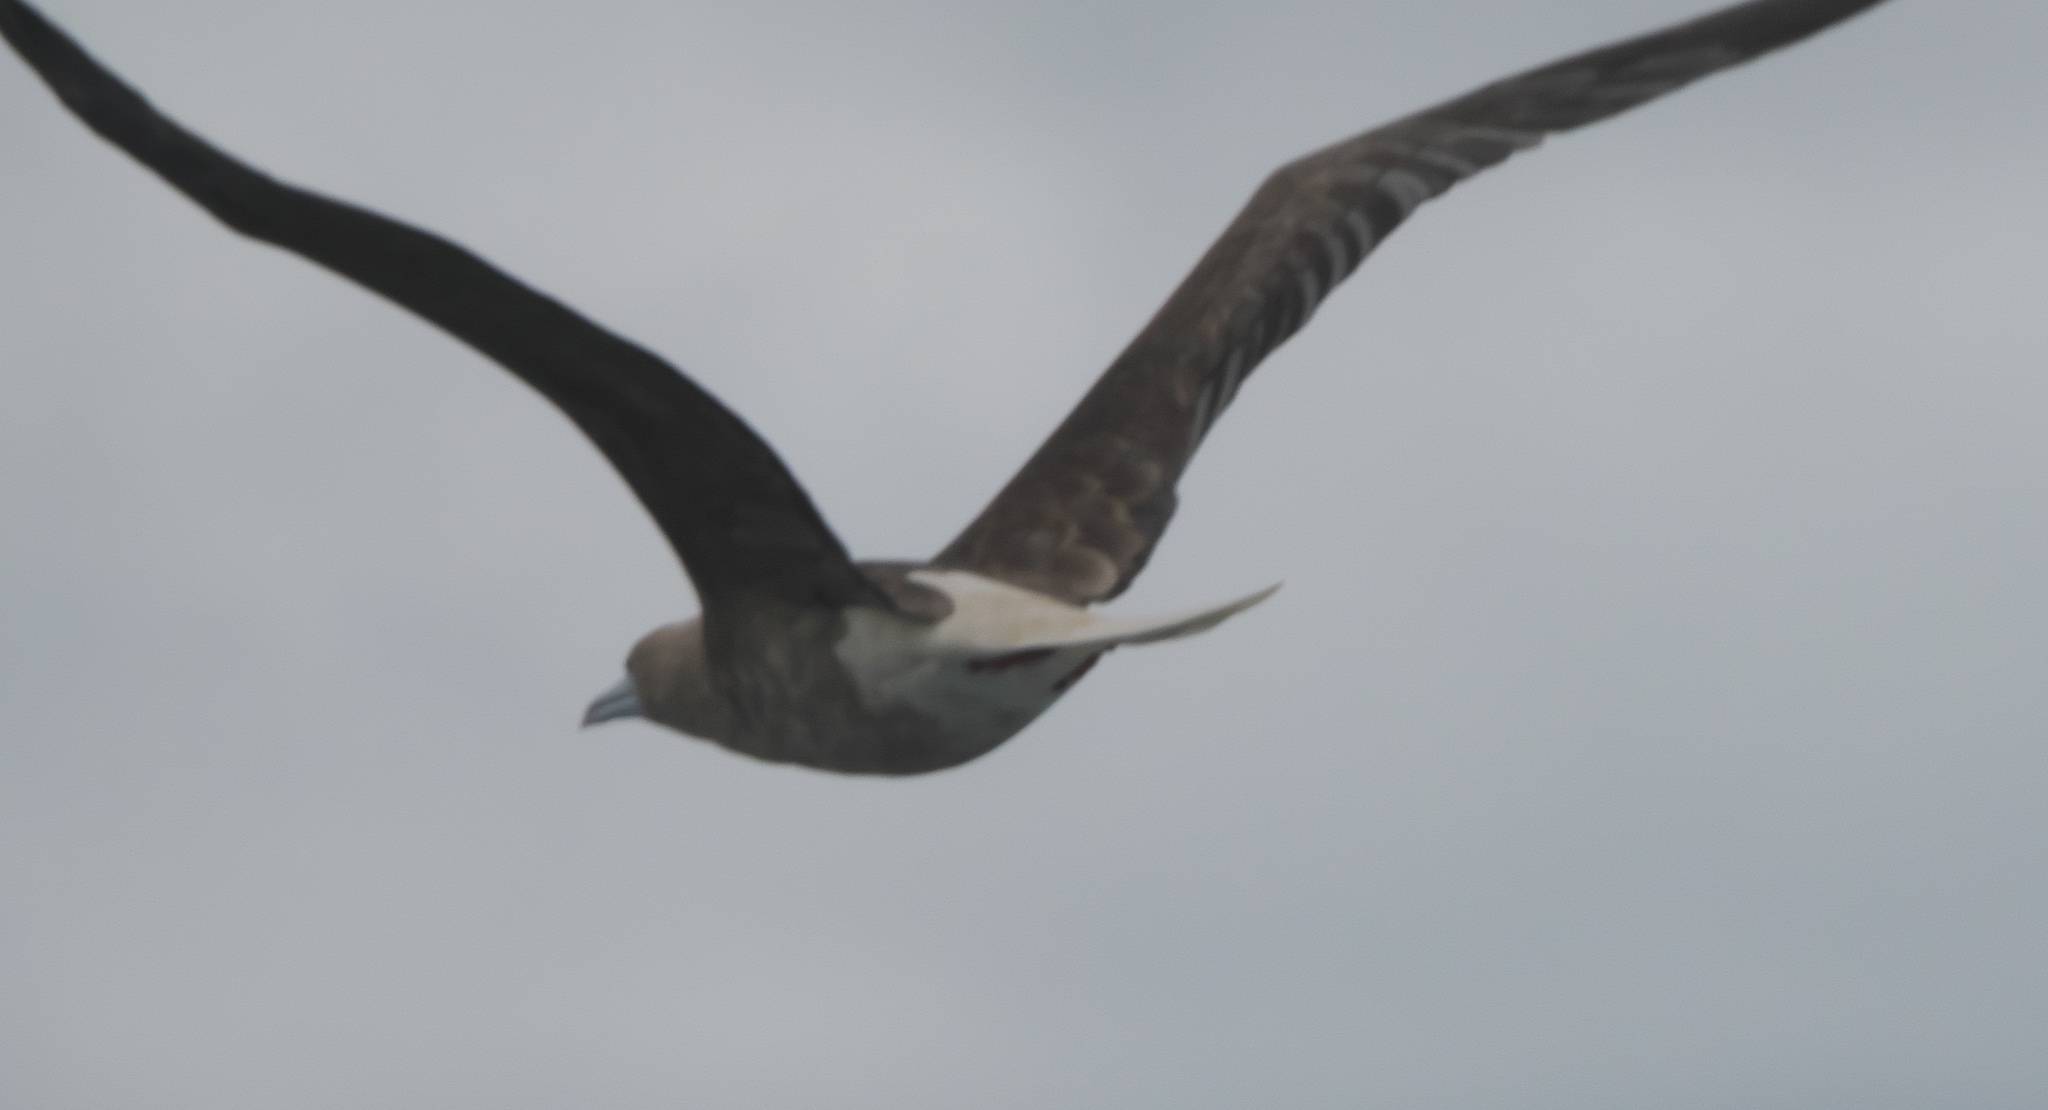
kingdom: Animalia
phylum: Chordata
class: Aves
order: Suliformes
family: Sulidae
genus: Sula
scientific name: Sula sula
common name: Red-footed booby
